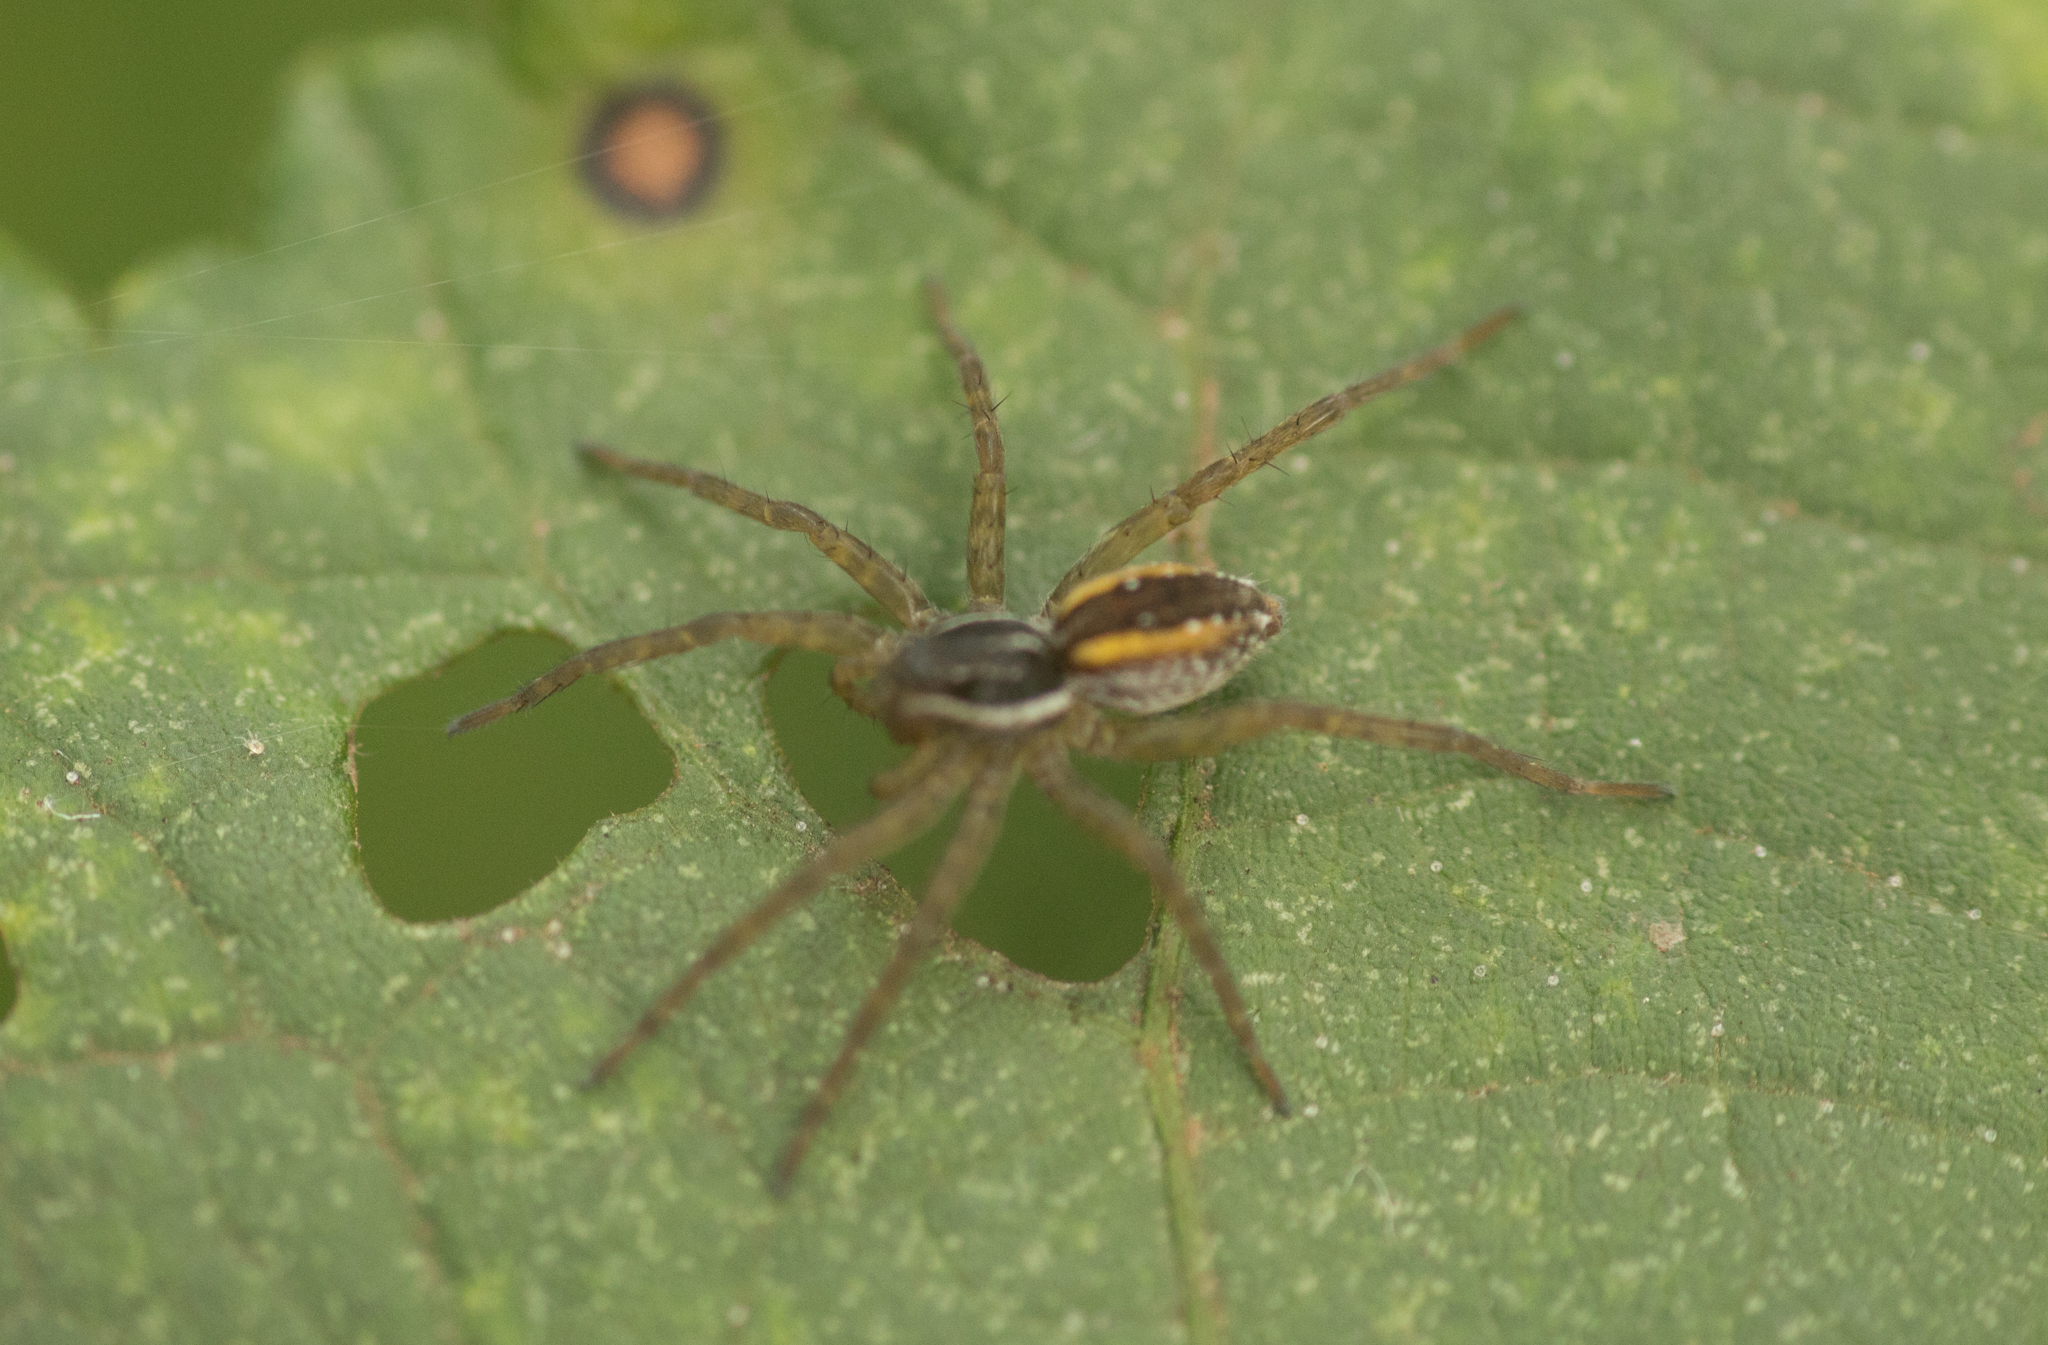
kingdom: Animalia
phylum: Arthropoda
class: Arachnida
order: Araneae
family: Lycosidae
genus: Diapontia
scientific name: Diapontia uruguayensis
